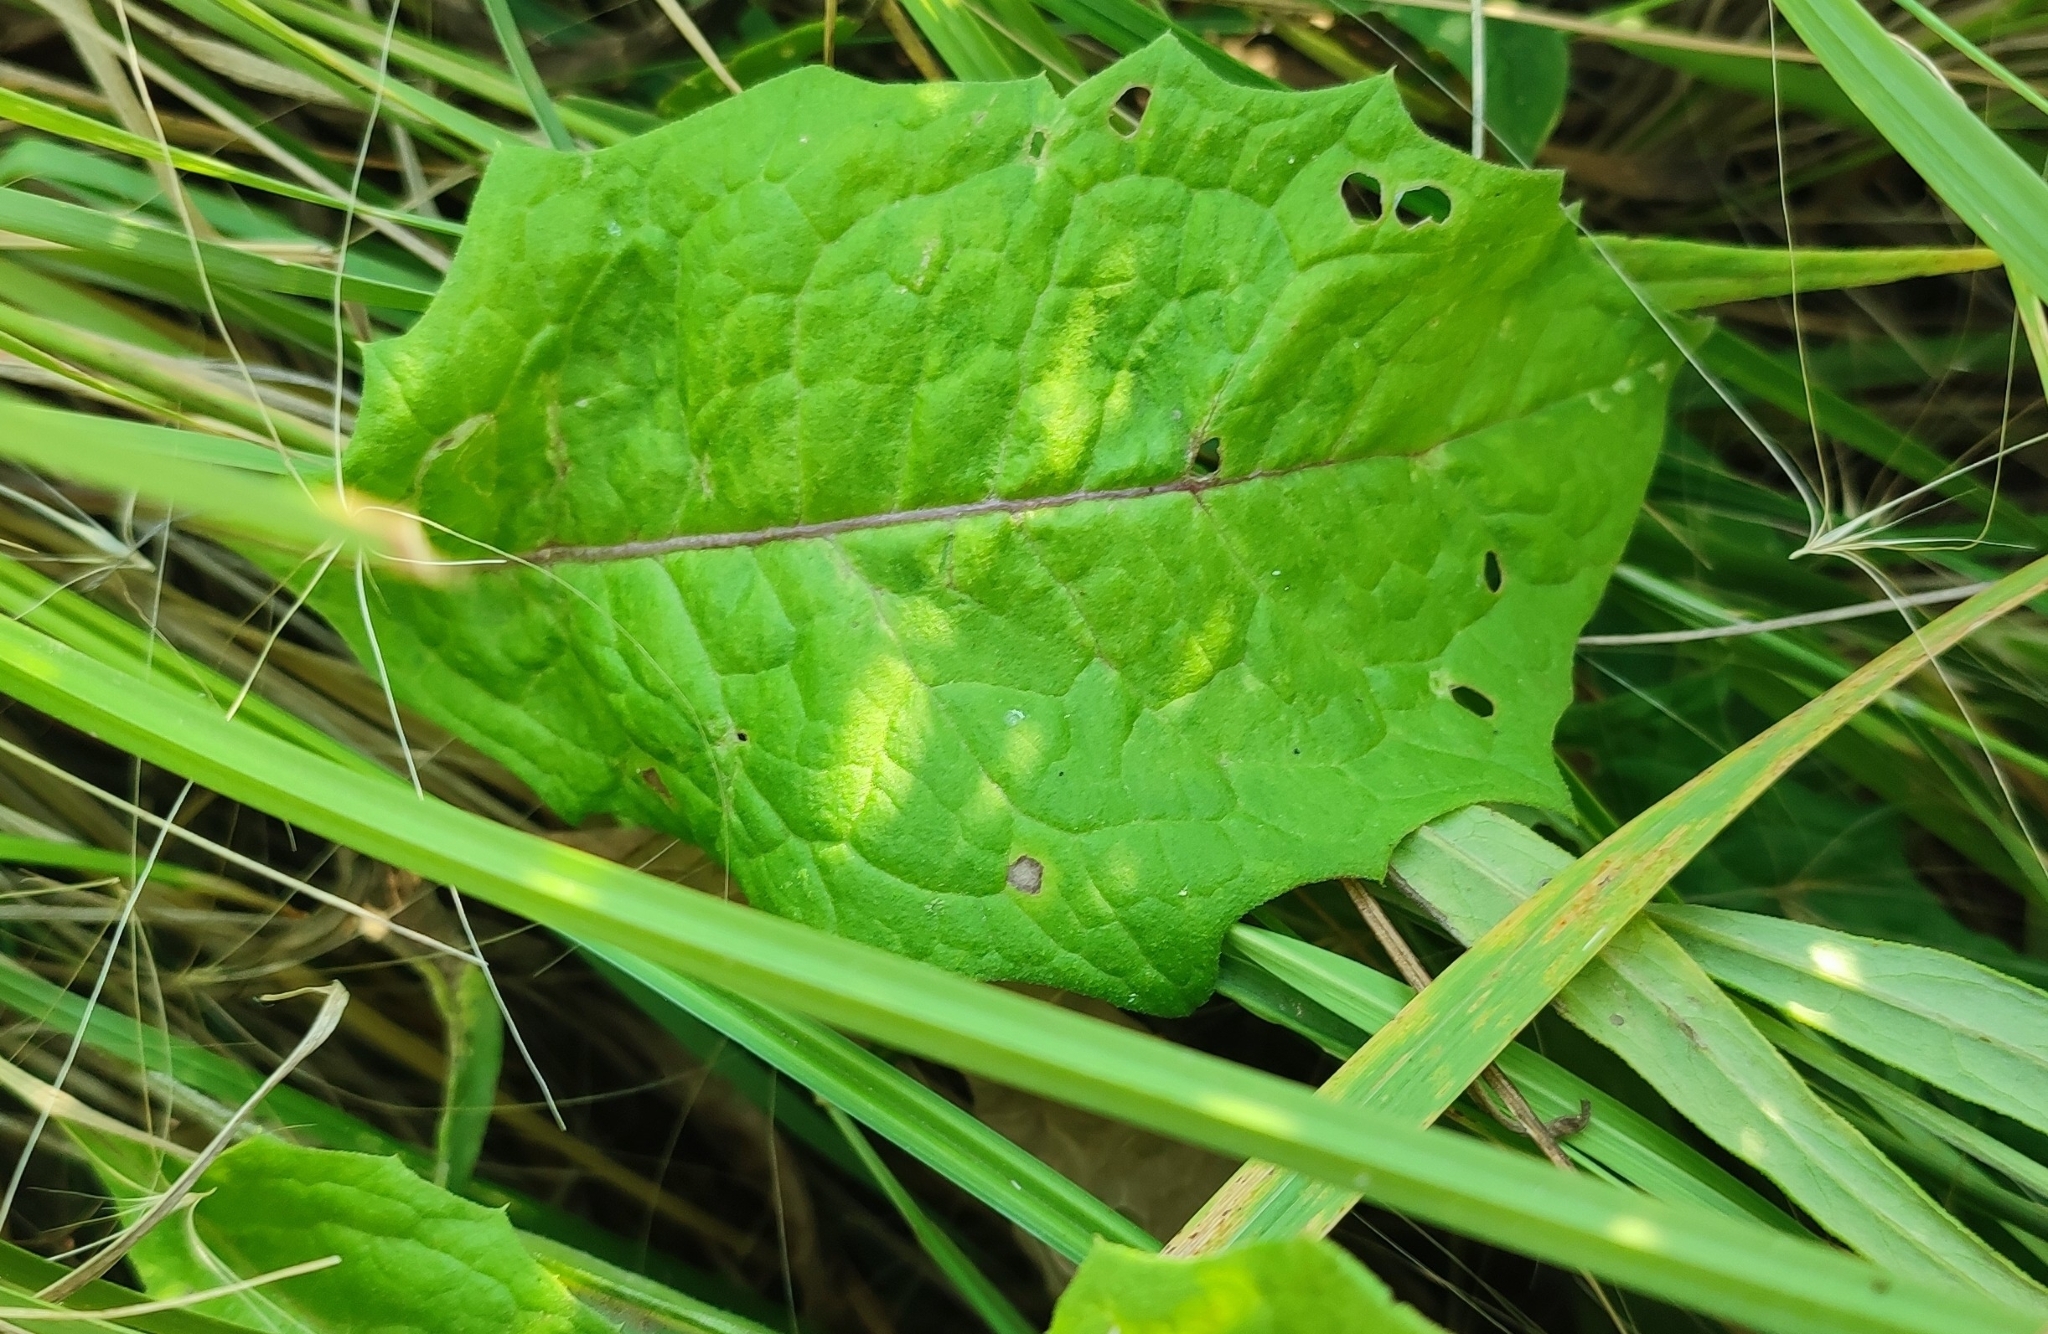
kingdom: Plantae
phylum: Tracheophyta
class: Magnoliopsida
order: Asterales
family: Asteraceae
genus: Saussurea
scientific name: Saussurea amara
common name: Alberta sawwort
